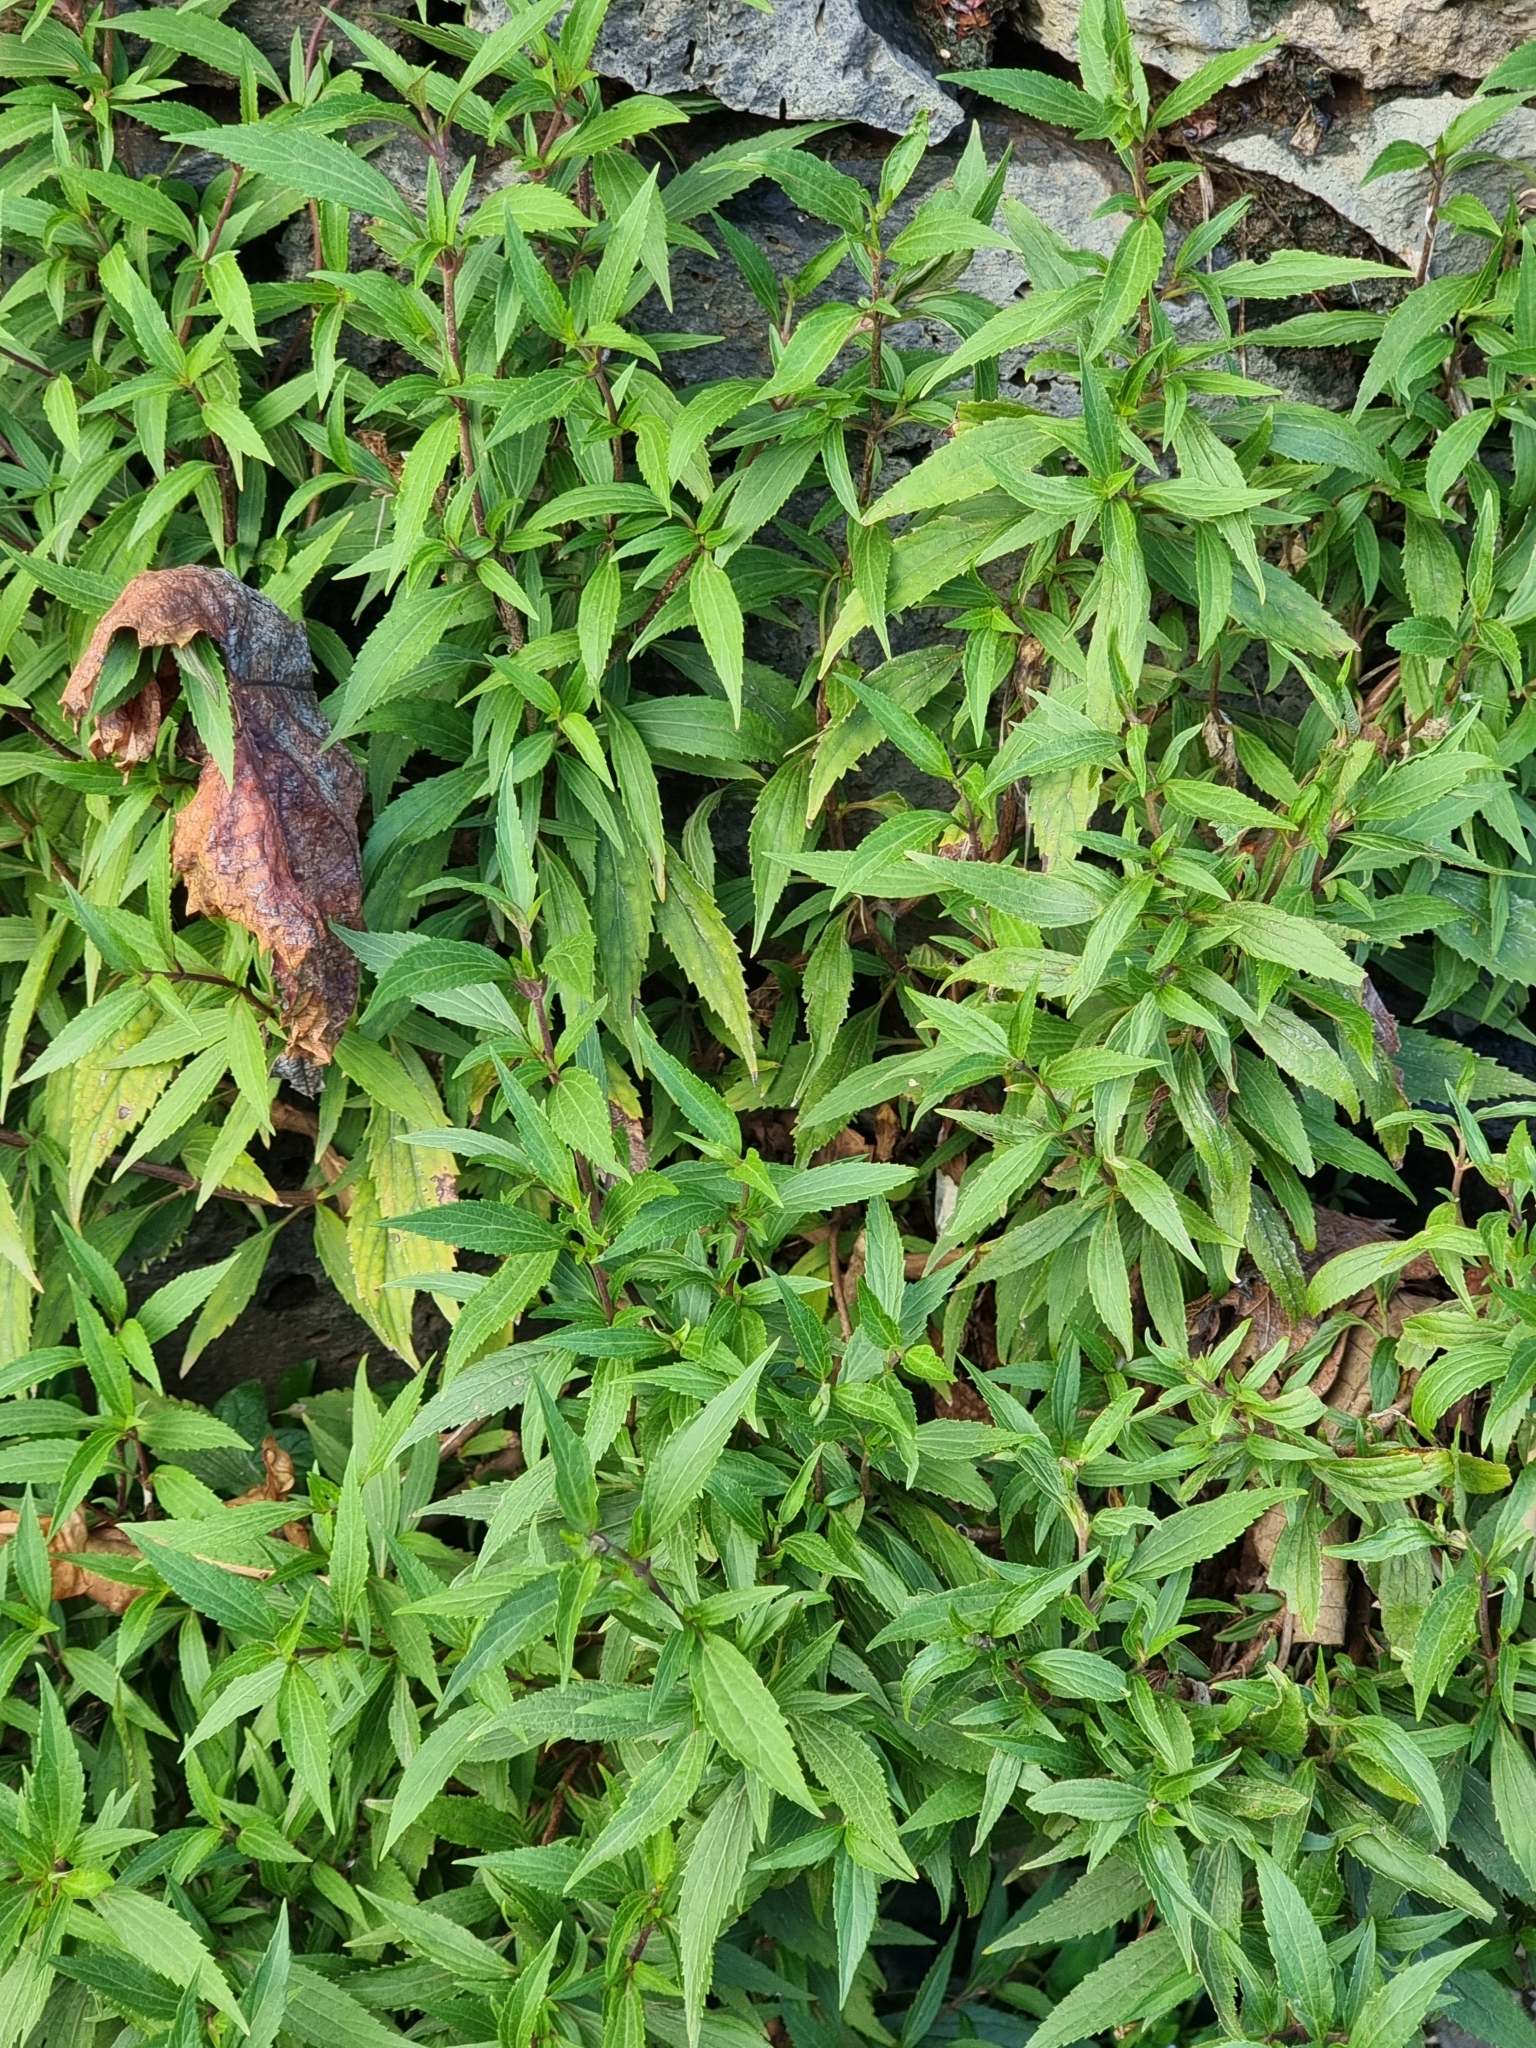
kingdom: Plantae
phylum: Tracheophyta
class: Magnoliopsida
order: Asterales
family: Asteraceae
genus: Ageratina
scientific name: Ageratina riparia
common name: Creeping croftonweed
